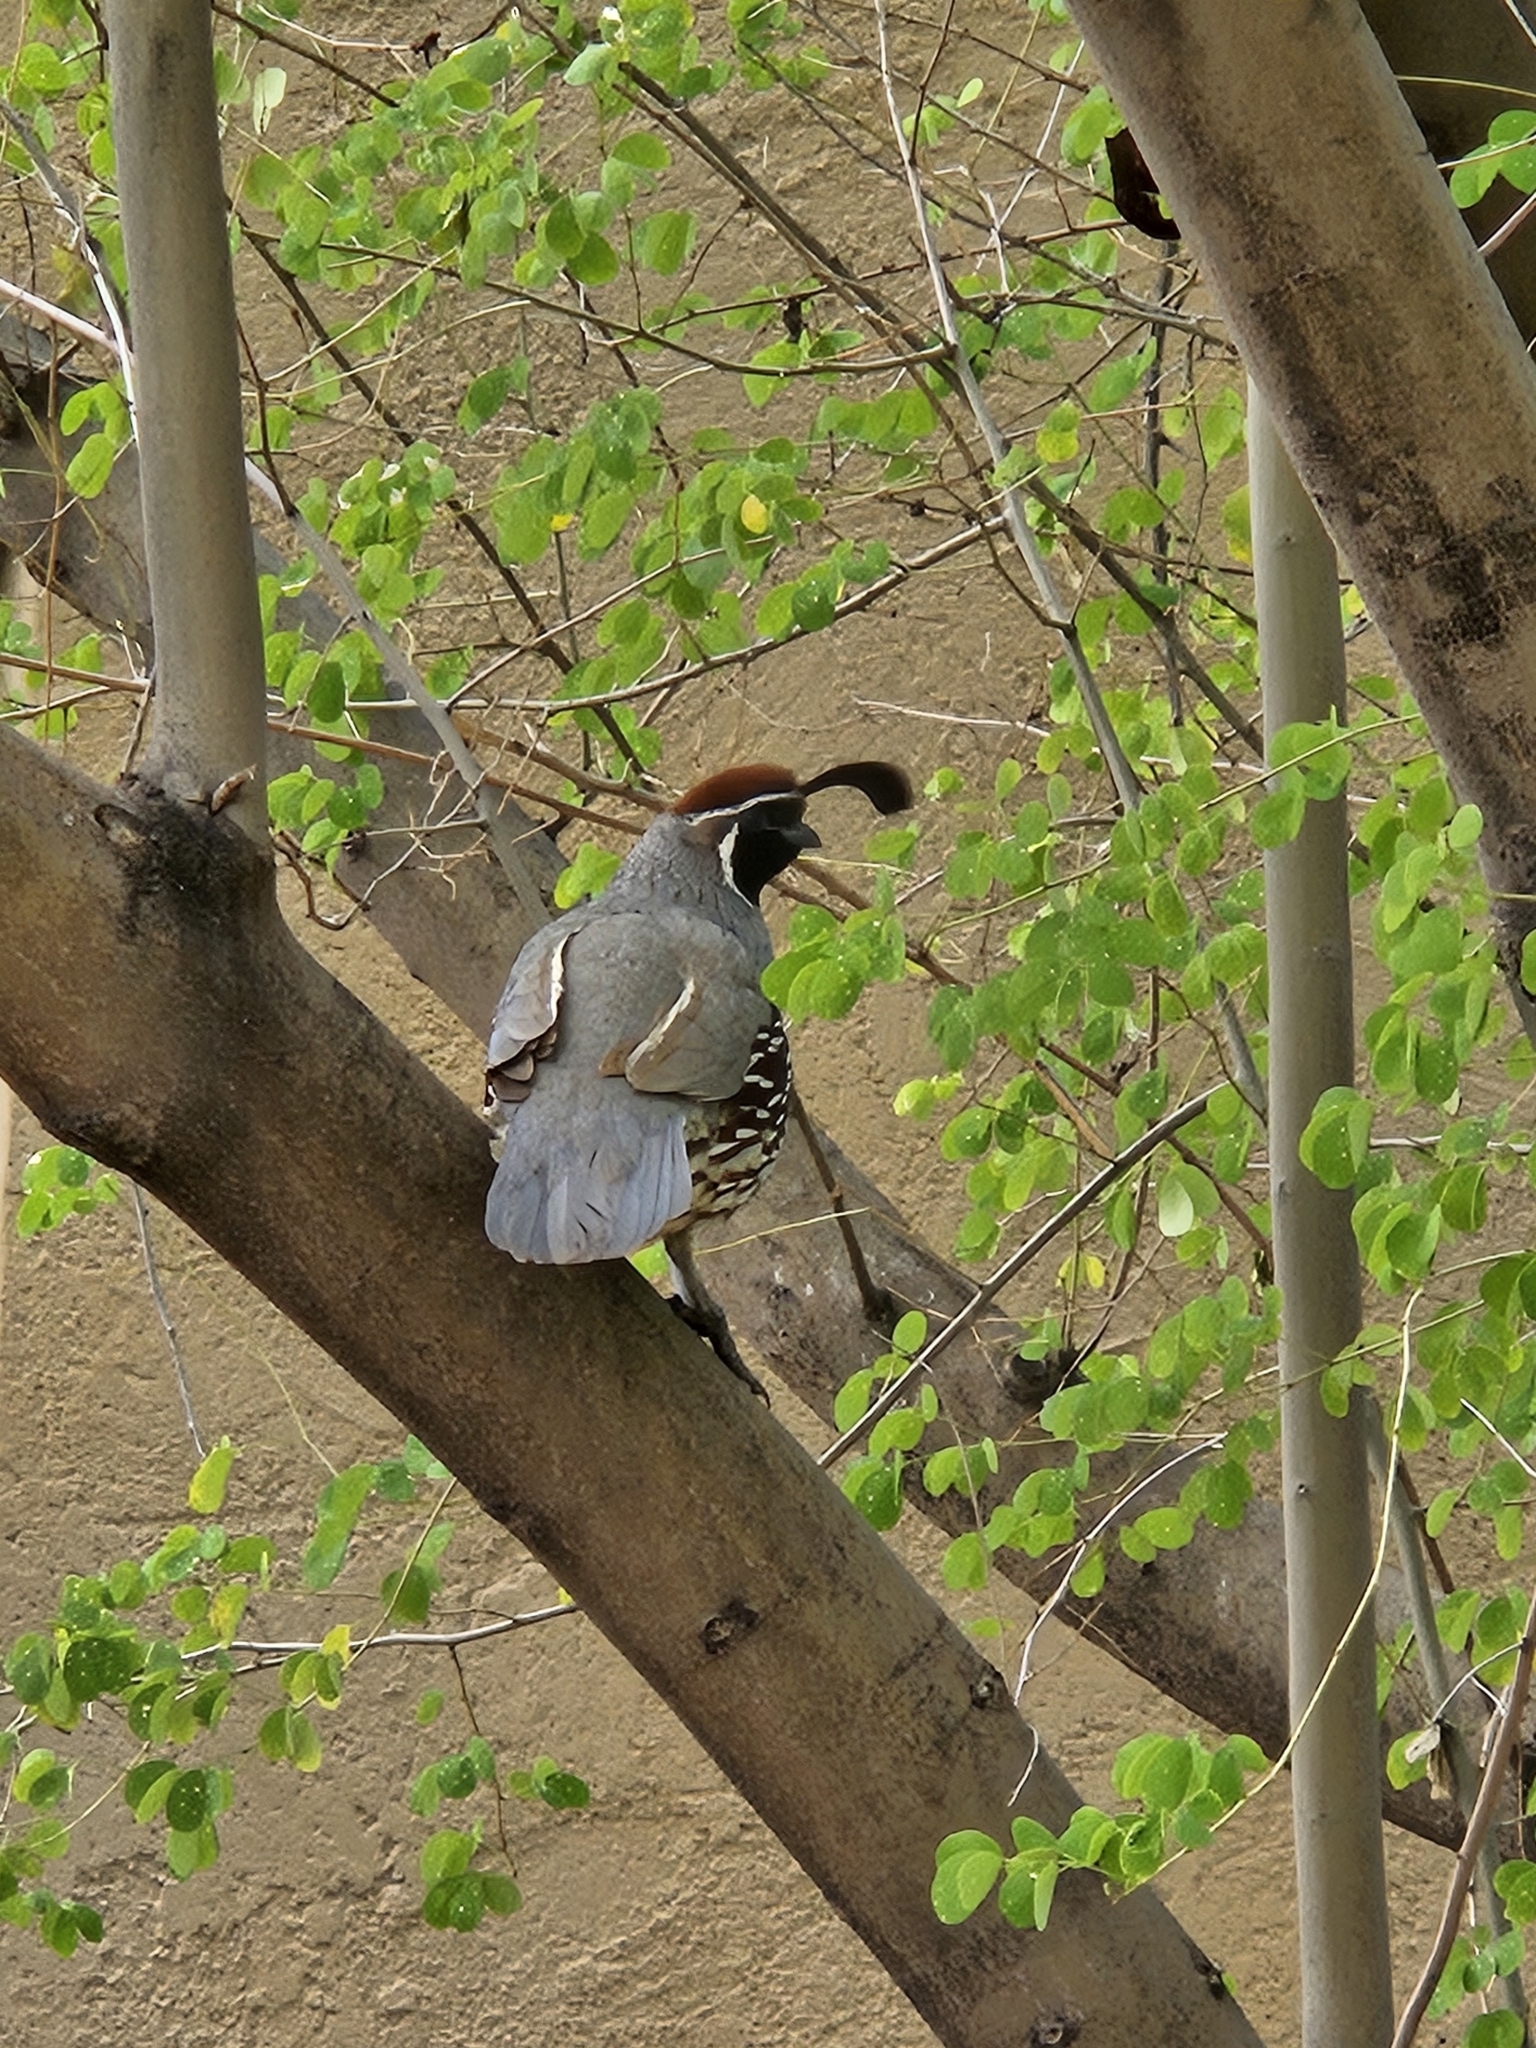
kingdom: Animalia
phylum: Chordata
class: Aves
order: Galliformes
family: Odontophoridae
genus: Callipepla
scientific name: Callipepla gambelii
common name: Gambel's quail
